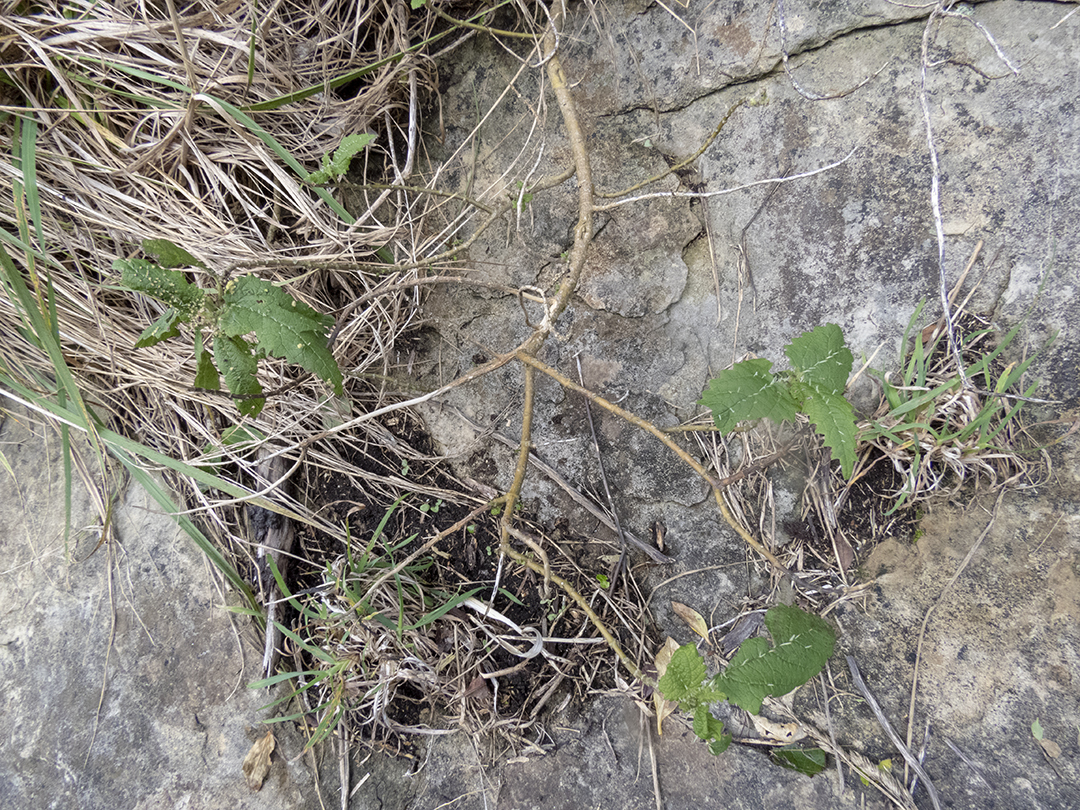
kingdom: Plantae
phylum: Tracheophyta
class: Magnoliopsida
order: Rosales
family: Urticaceae
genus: Urtica
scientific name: Urtica ferox
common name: Tree nettle
